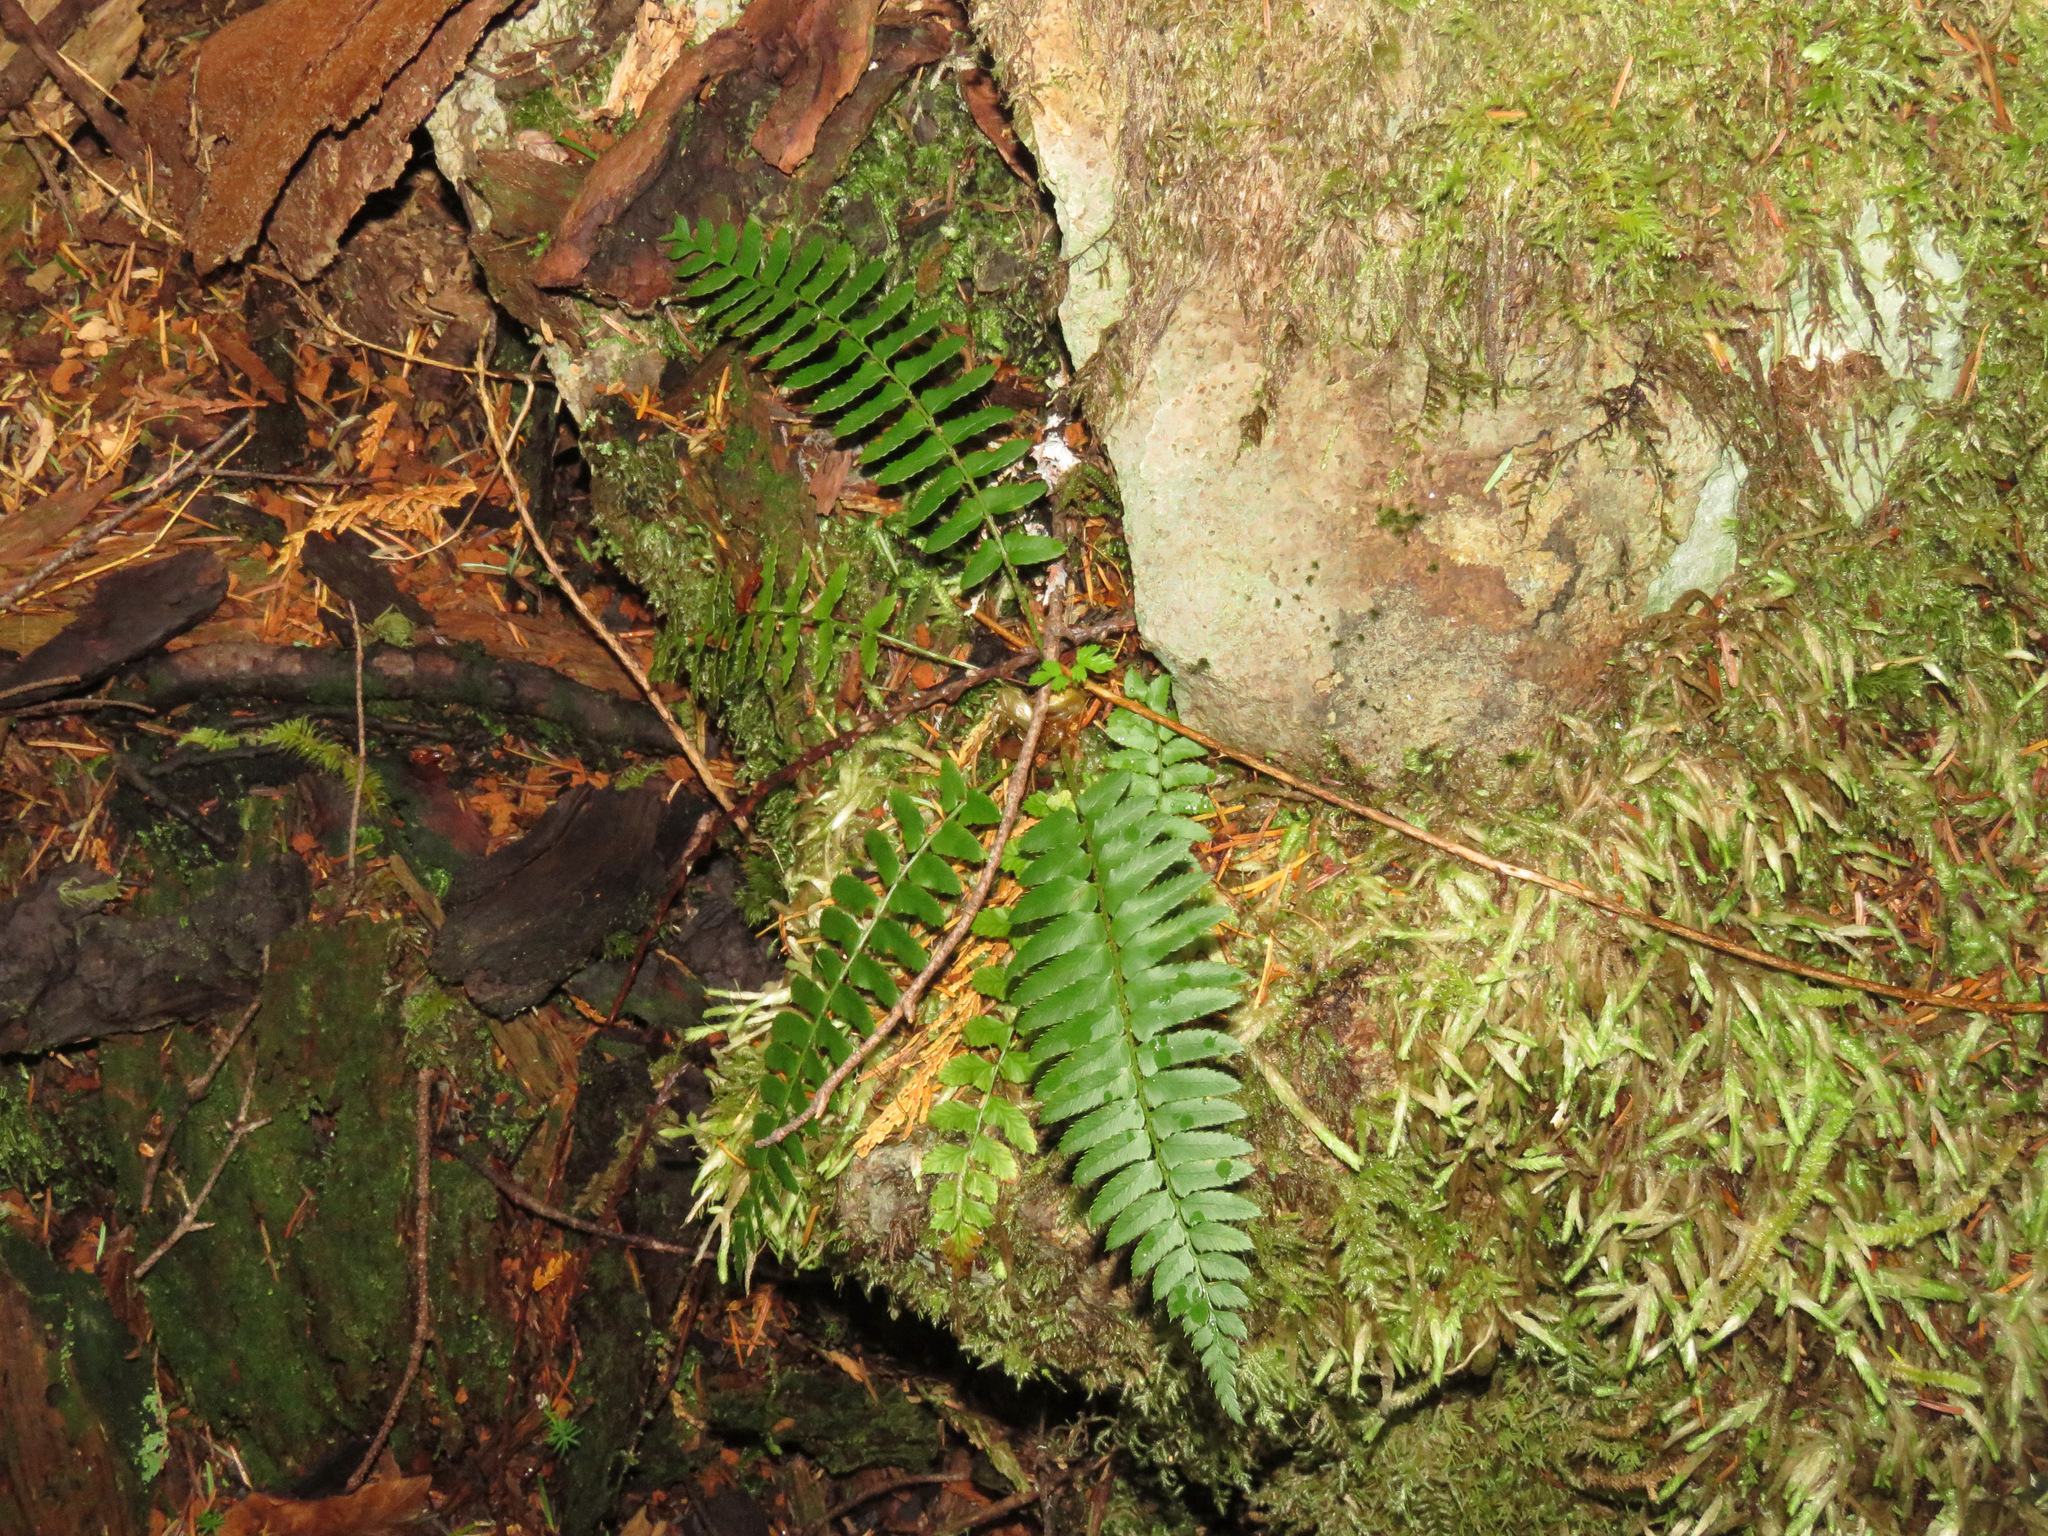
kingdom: Plantae
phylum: Tracheophyta
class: Polypodiopsida
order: Polypodiales
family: Dryopteridaceae
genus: Polystichum
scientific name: Polystichum munitum
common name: Western sword-fern
